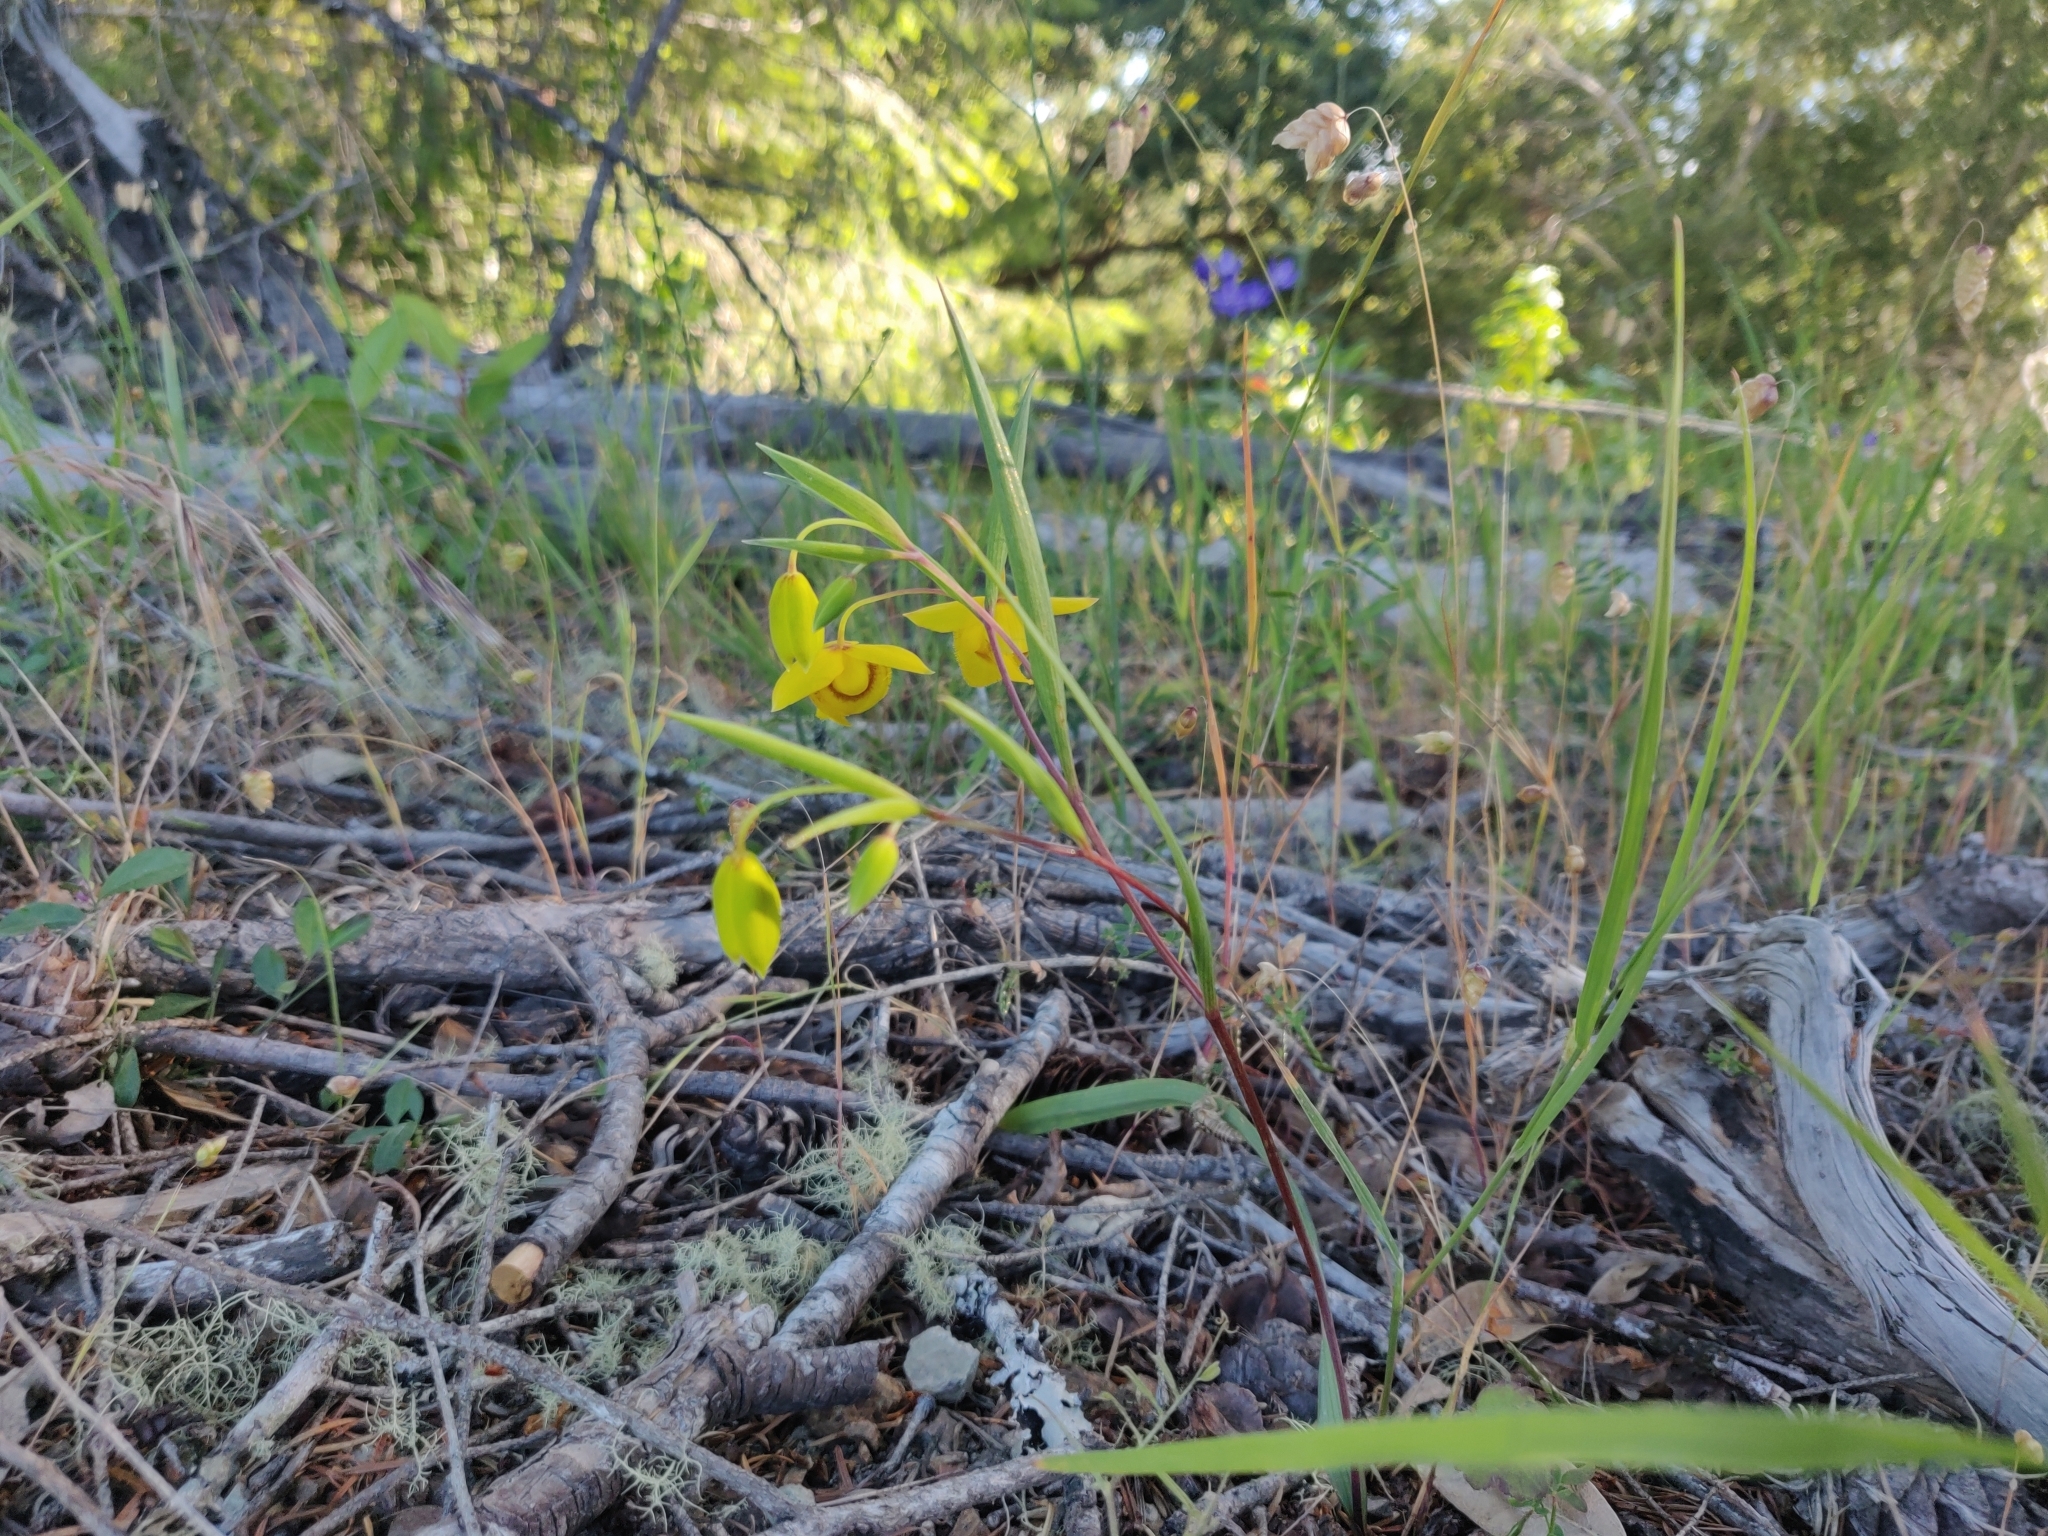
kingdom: Plantae
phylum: Tracheophyta
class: Liliopsida
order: Liliales
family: Liliaceae
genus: Calochortus
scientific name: Calochortus amabilis
